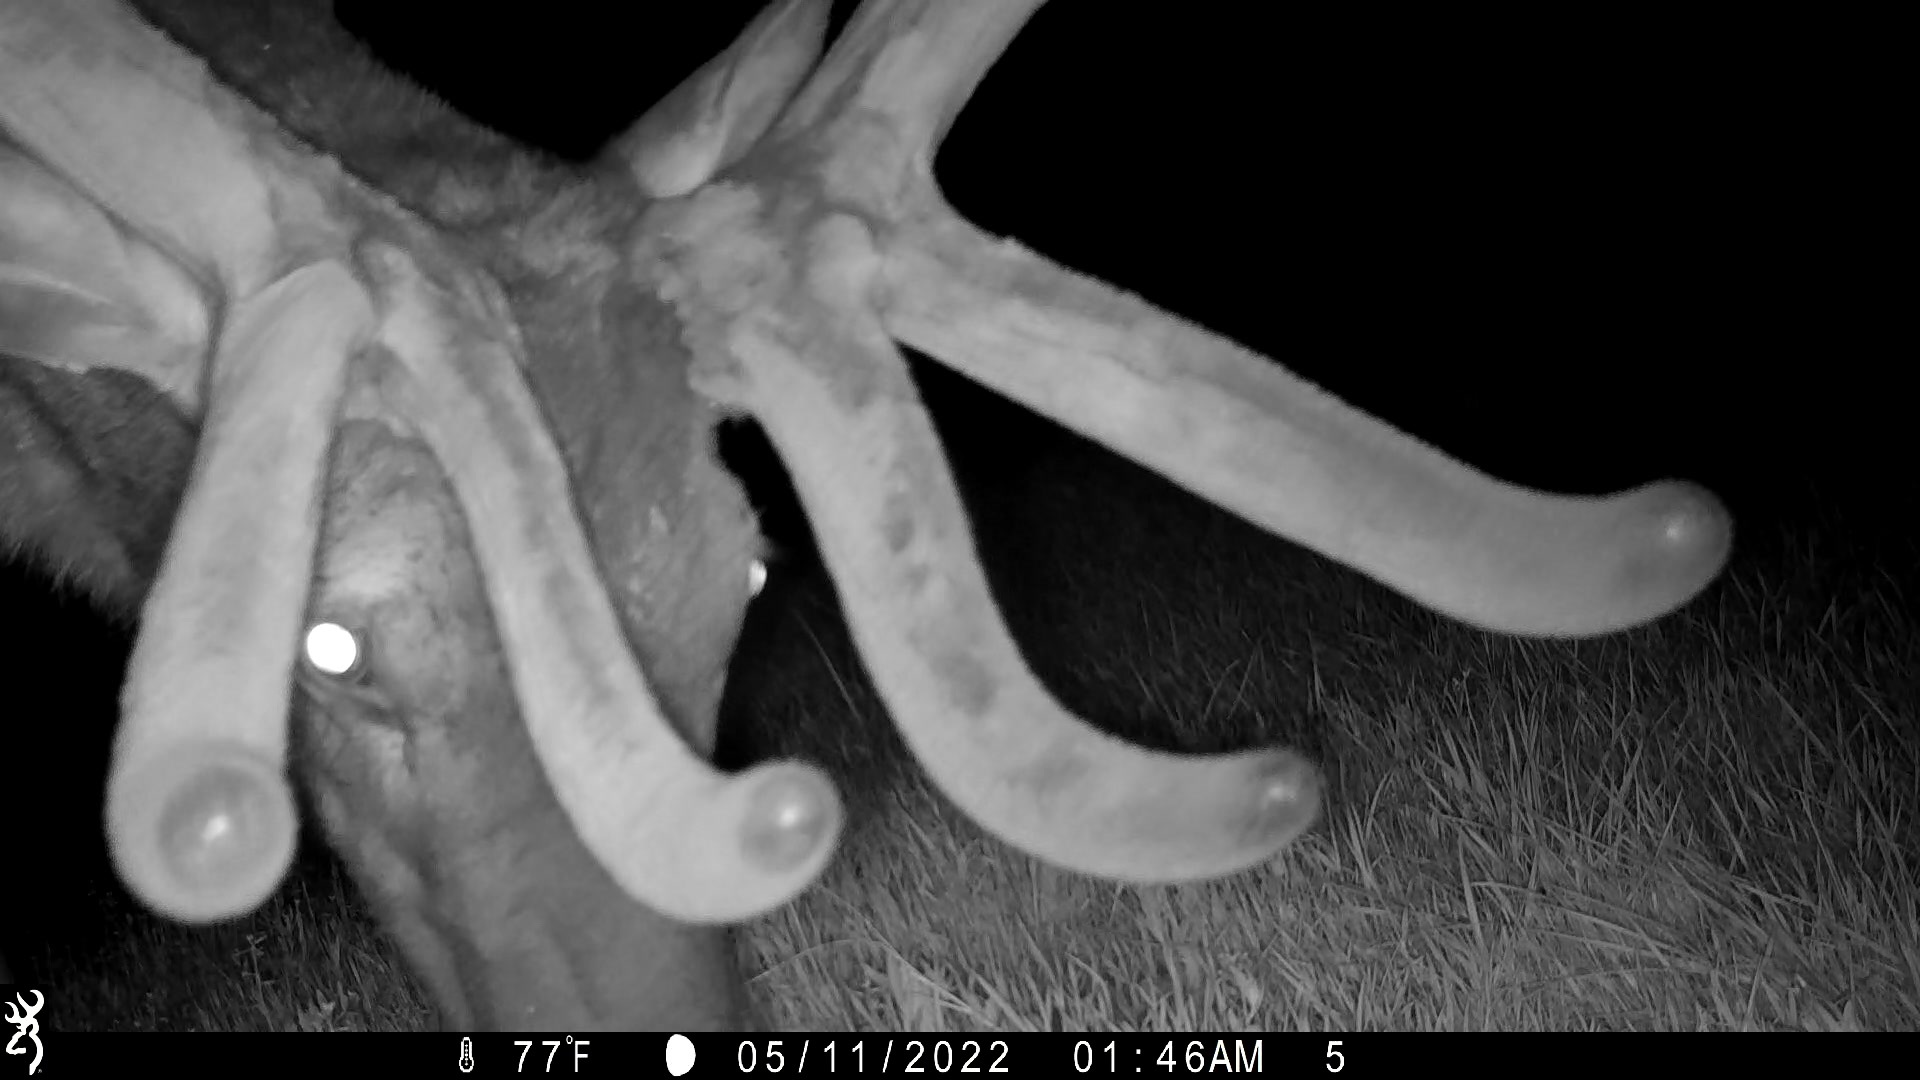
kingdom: Animalia
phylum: Chordata
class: Mammalia
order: Artiodactyla
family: Cervidae
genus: Cervus
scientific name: Cervus elaphus
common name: Red deer
